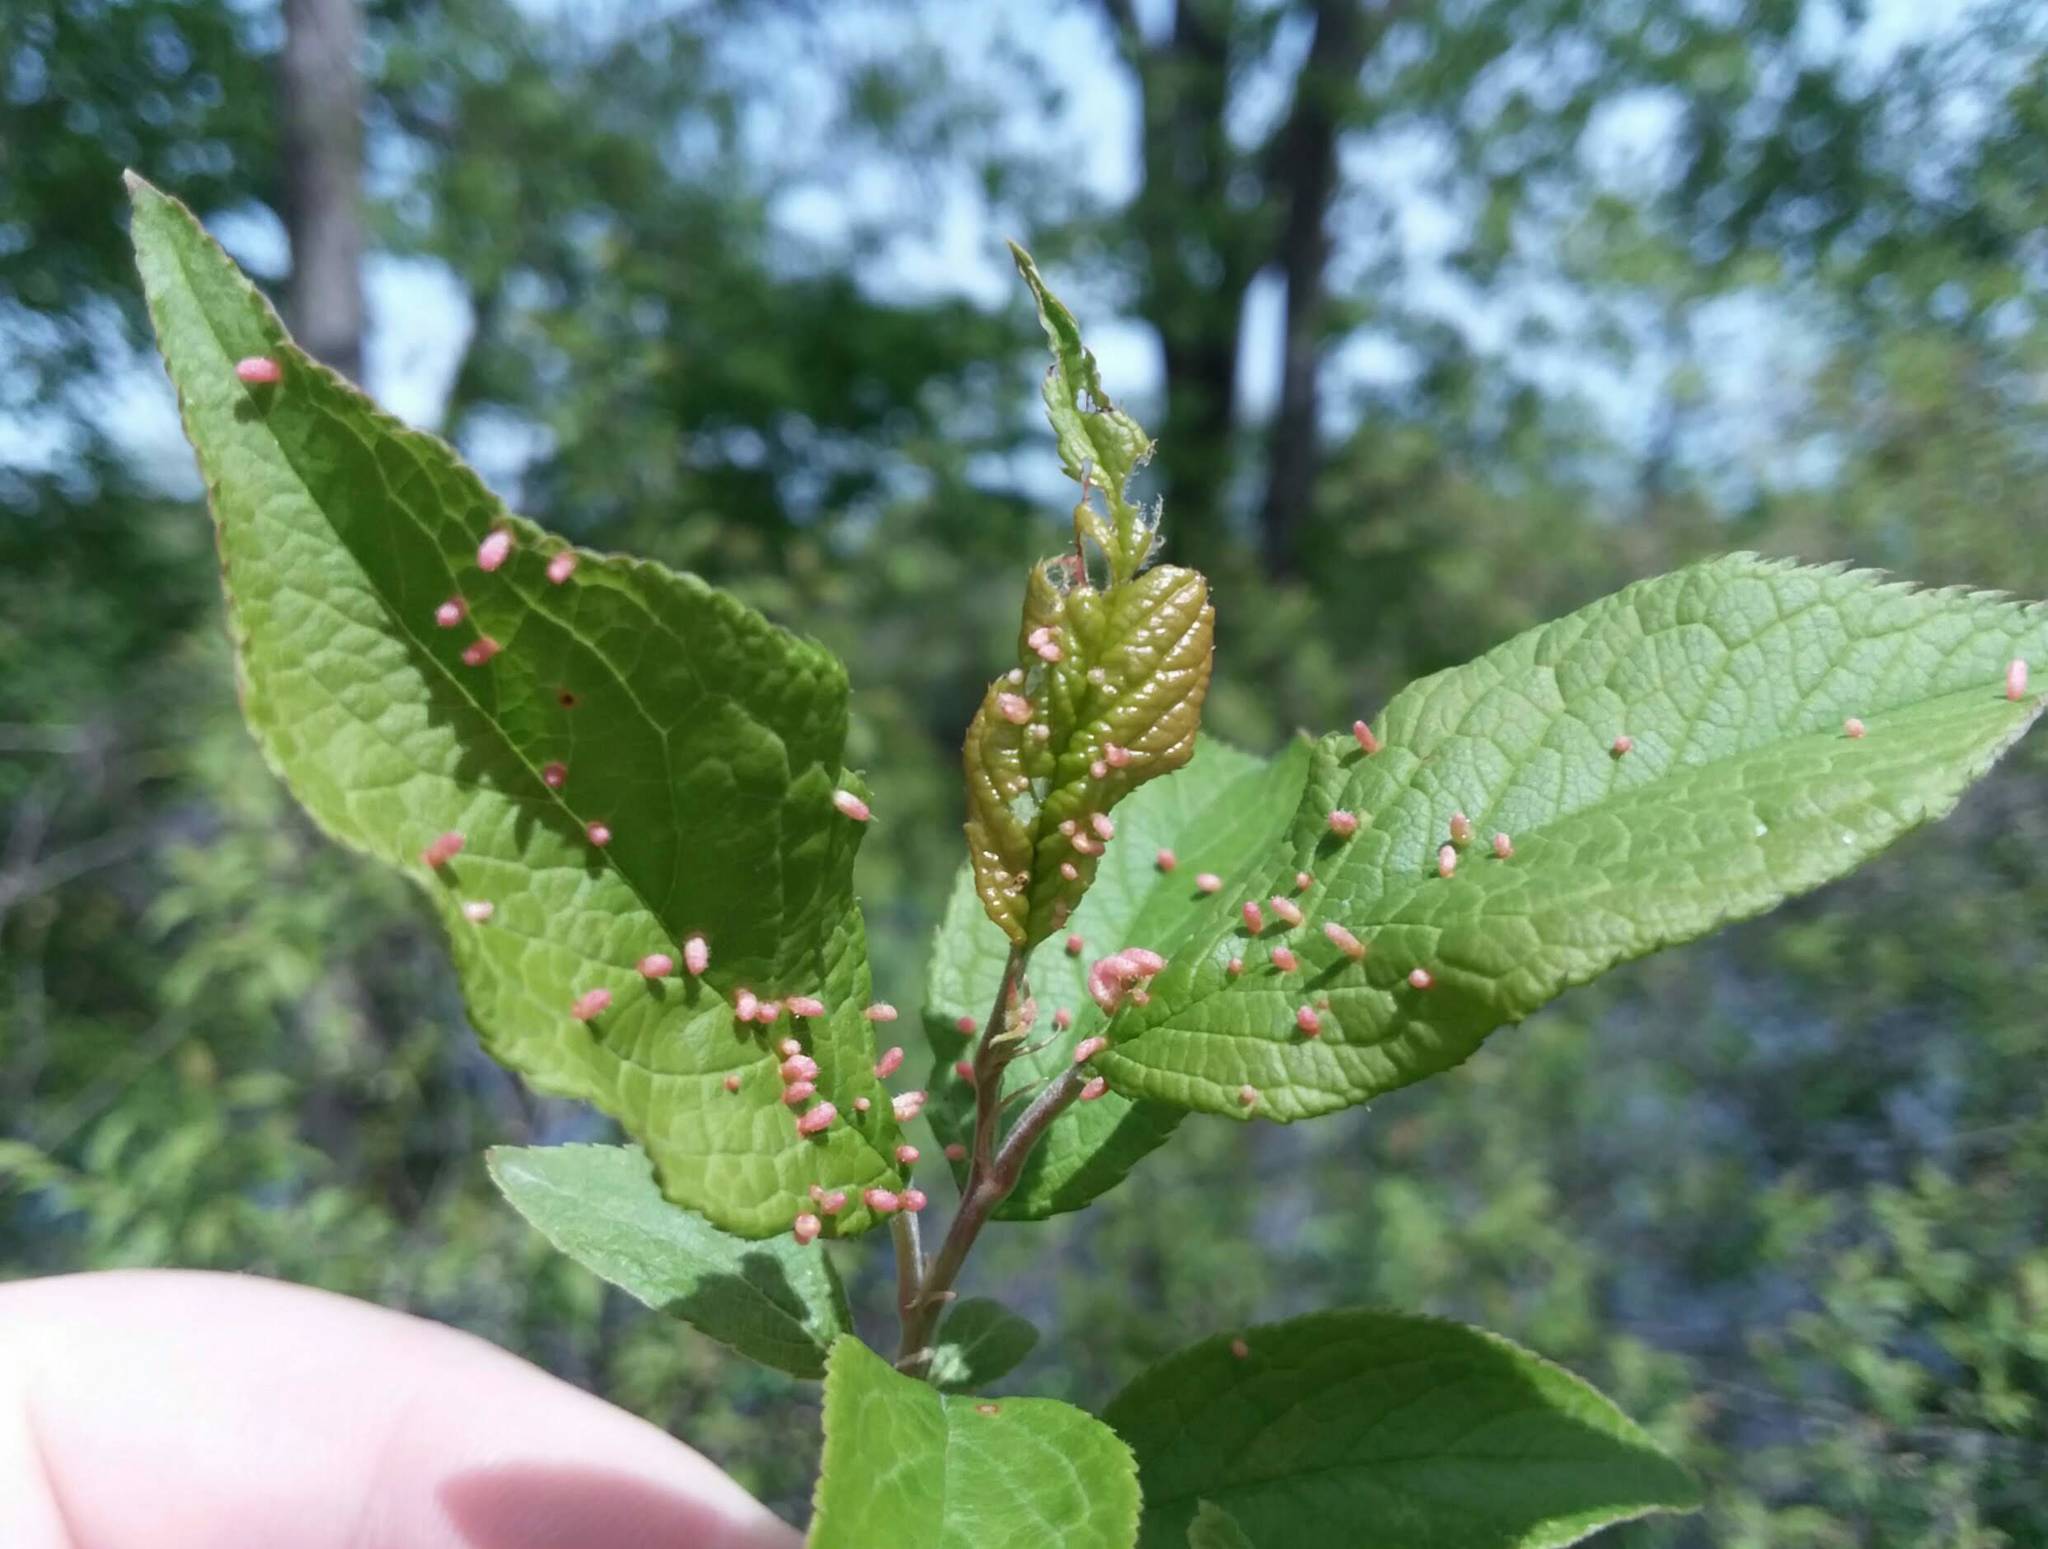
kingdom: Animalia
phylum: Arthropoda
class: Arachnida
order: Trombidiformes
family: Eriophyidae
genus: Eriophyes
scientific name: Eriophyes emarginatae
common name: Plum leaf gall mite
